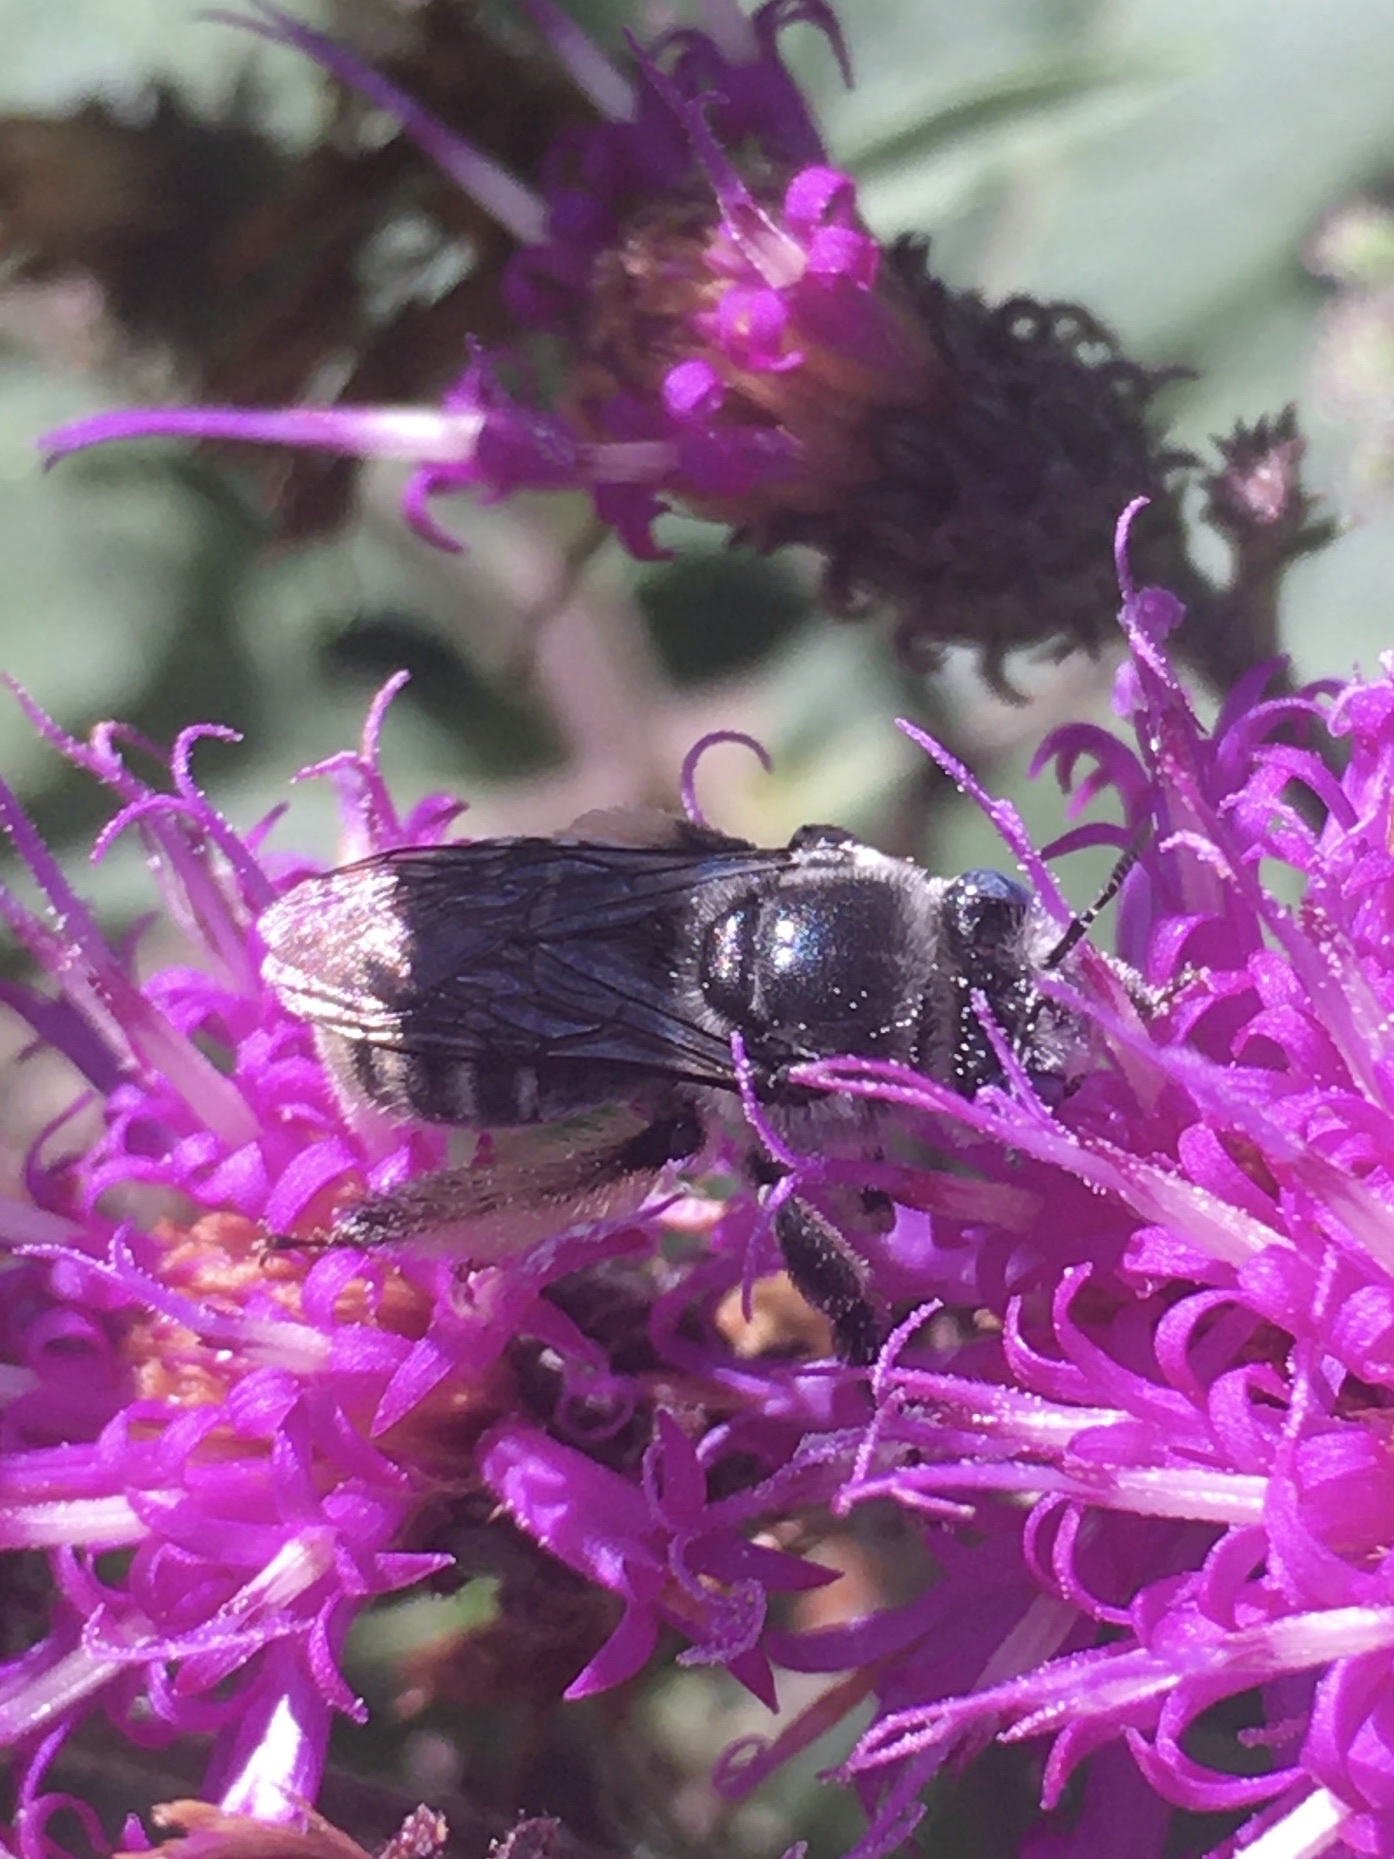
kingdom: Animalia
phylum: Arthropoda
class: Insecta
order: Hymenoptera
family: Apidae
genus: Melissodes
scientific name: Melissodes denticulatus
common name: Denticulate long-horned bee
